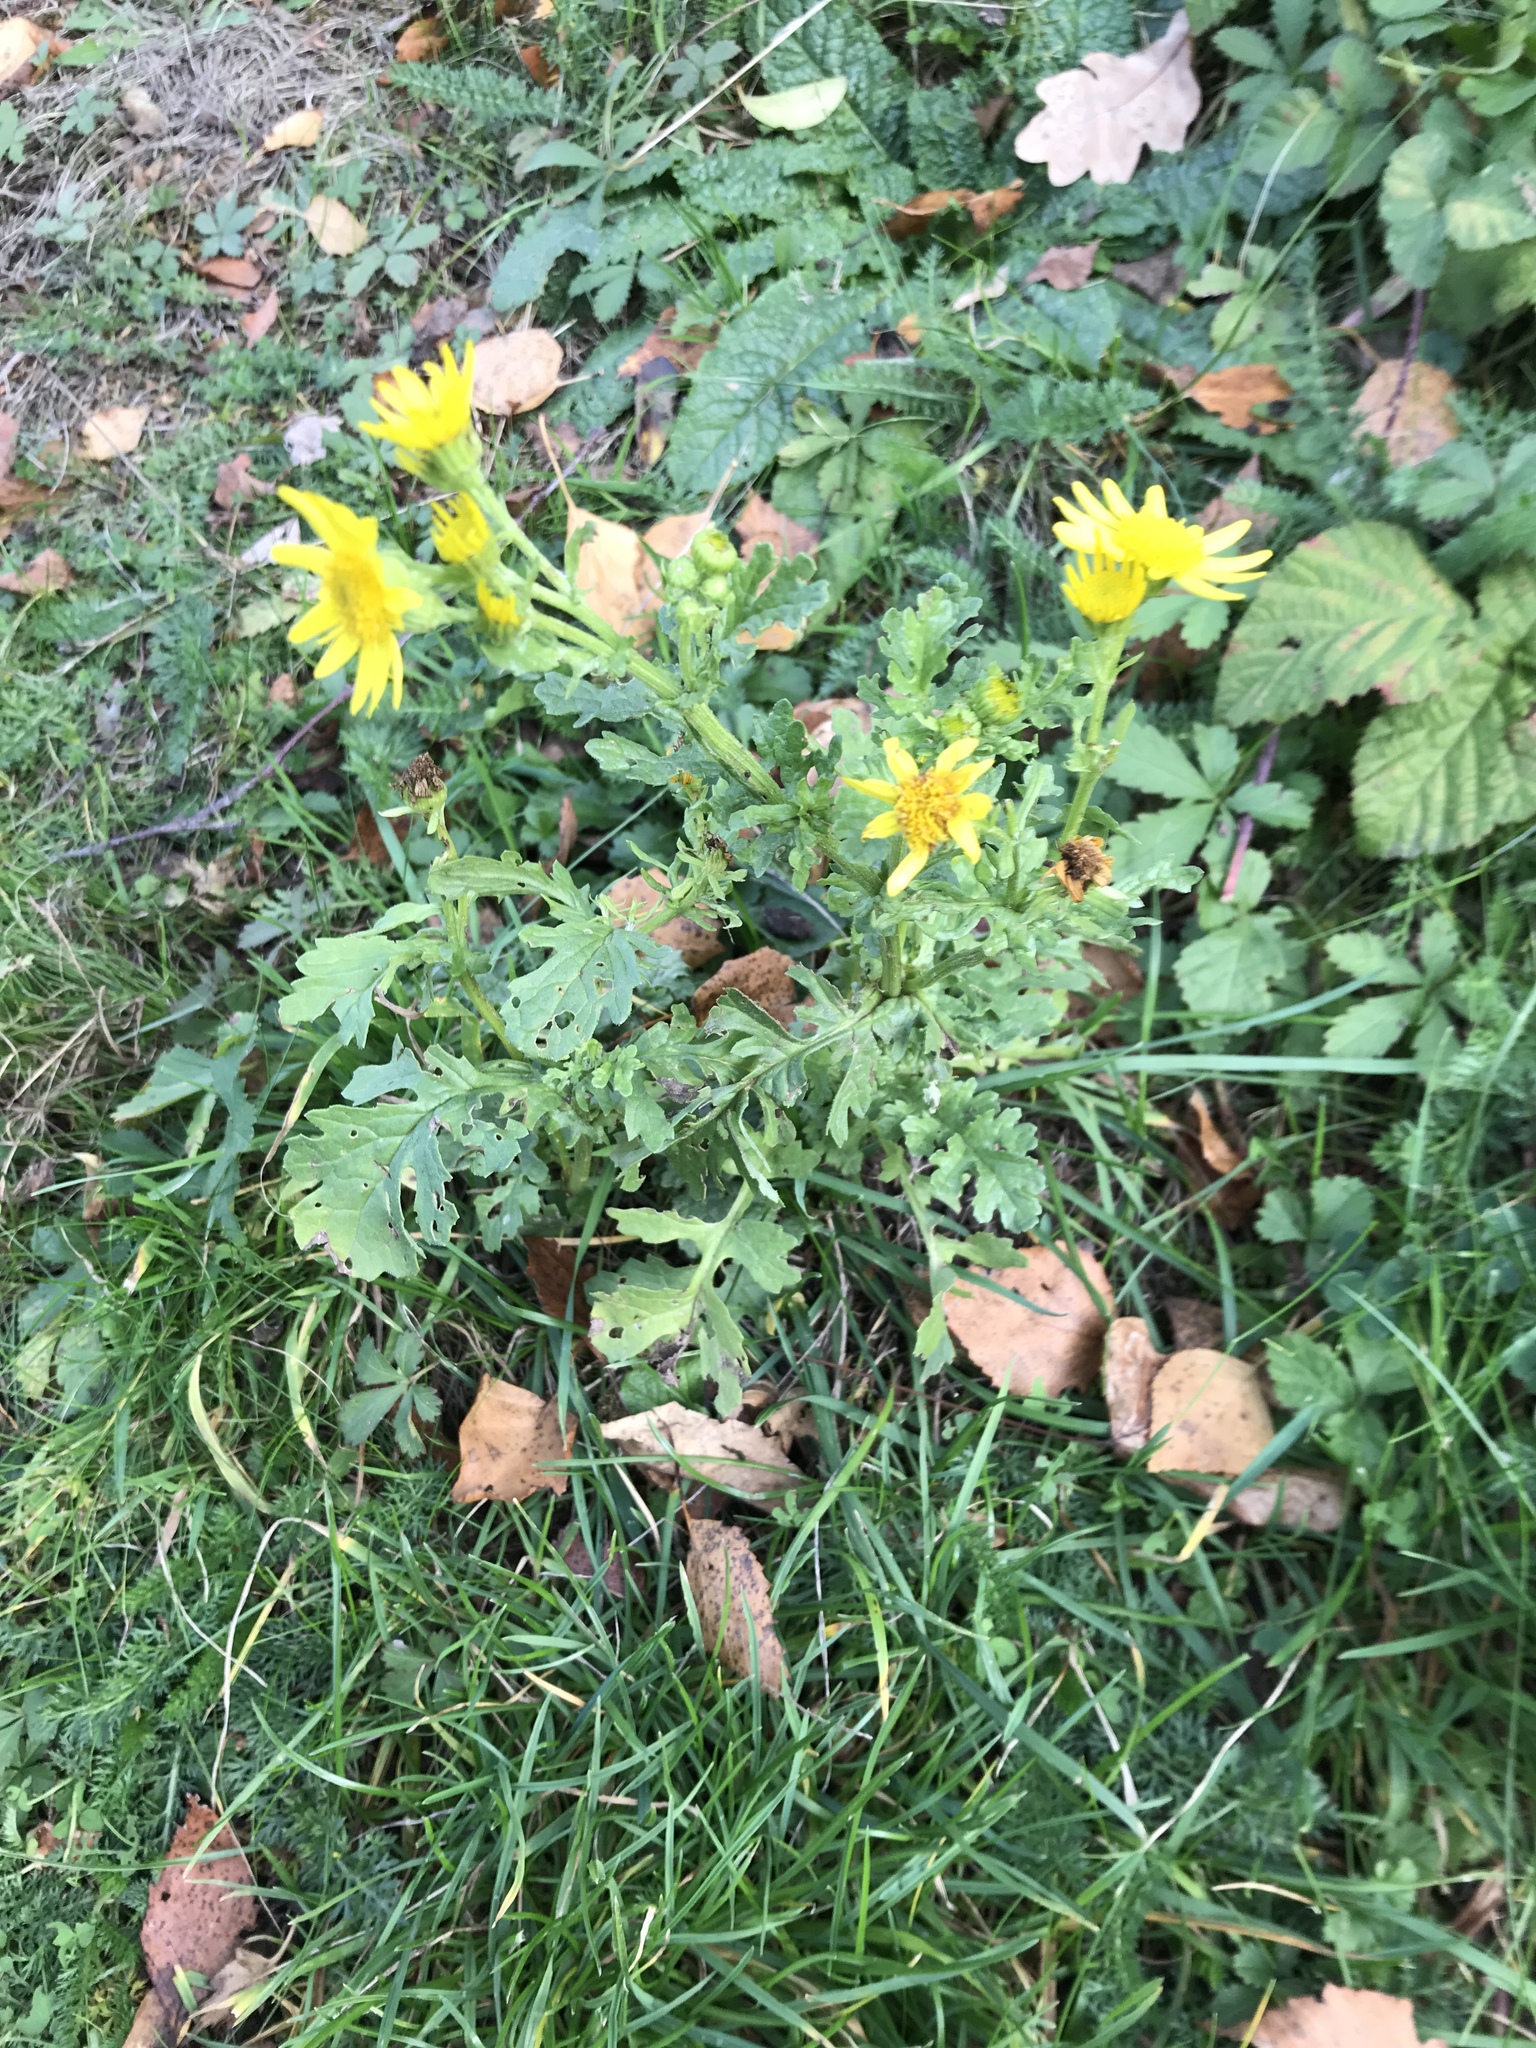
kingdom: Plantae
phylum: Tracheophyta
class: Magnoliopsida
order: Asterales
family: Asteraceae
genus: Jacobaea
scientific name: Jacobaea vulgaris
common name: Stinking willie
